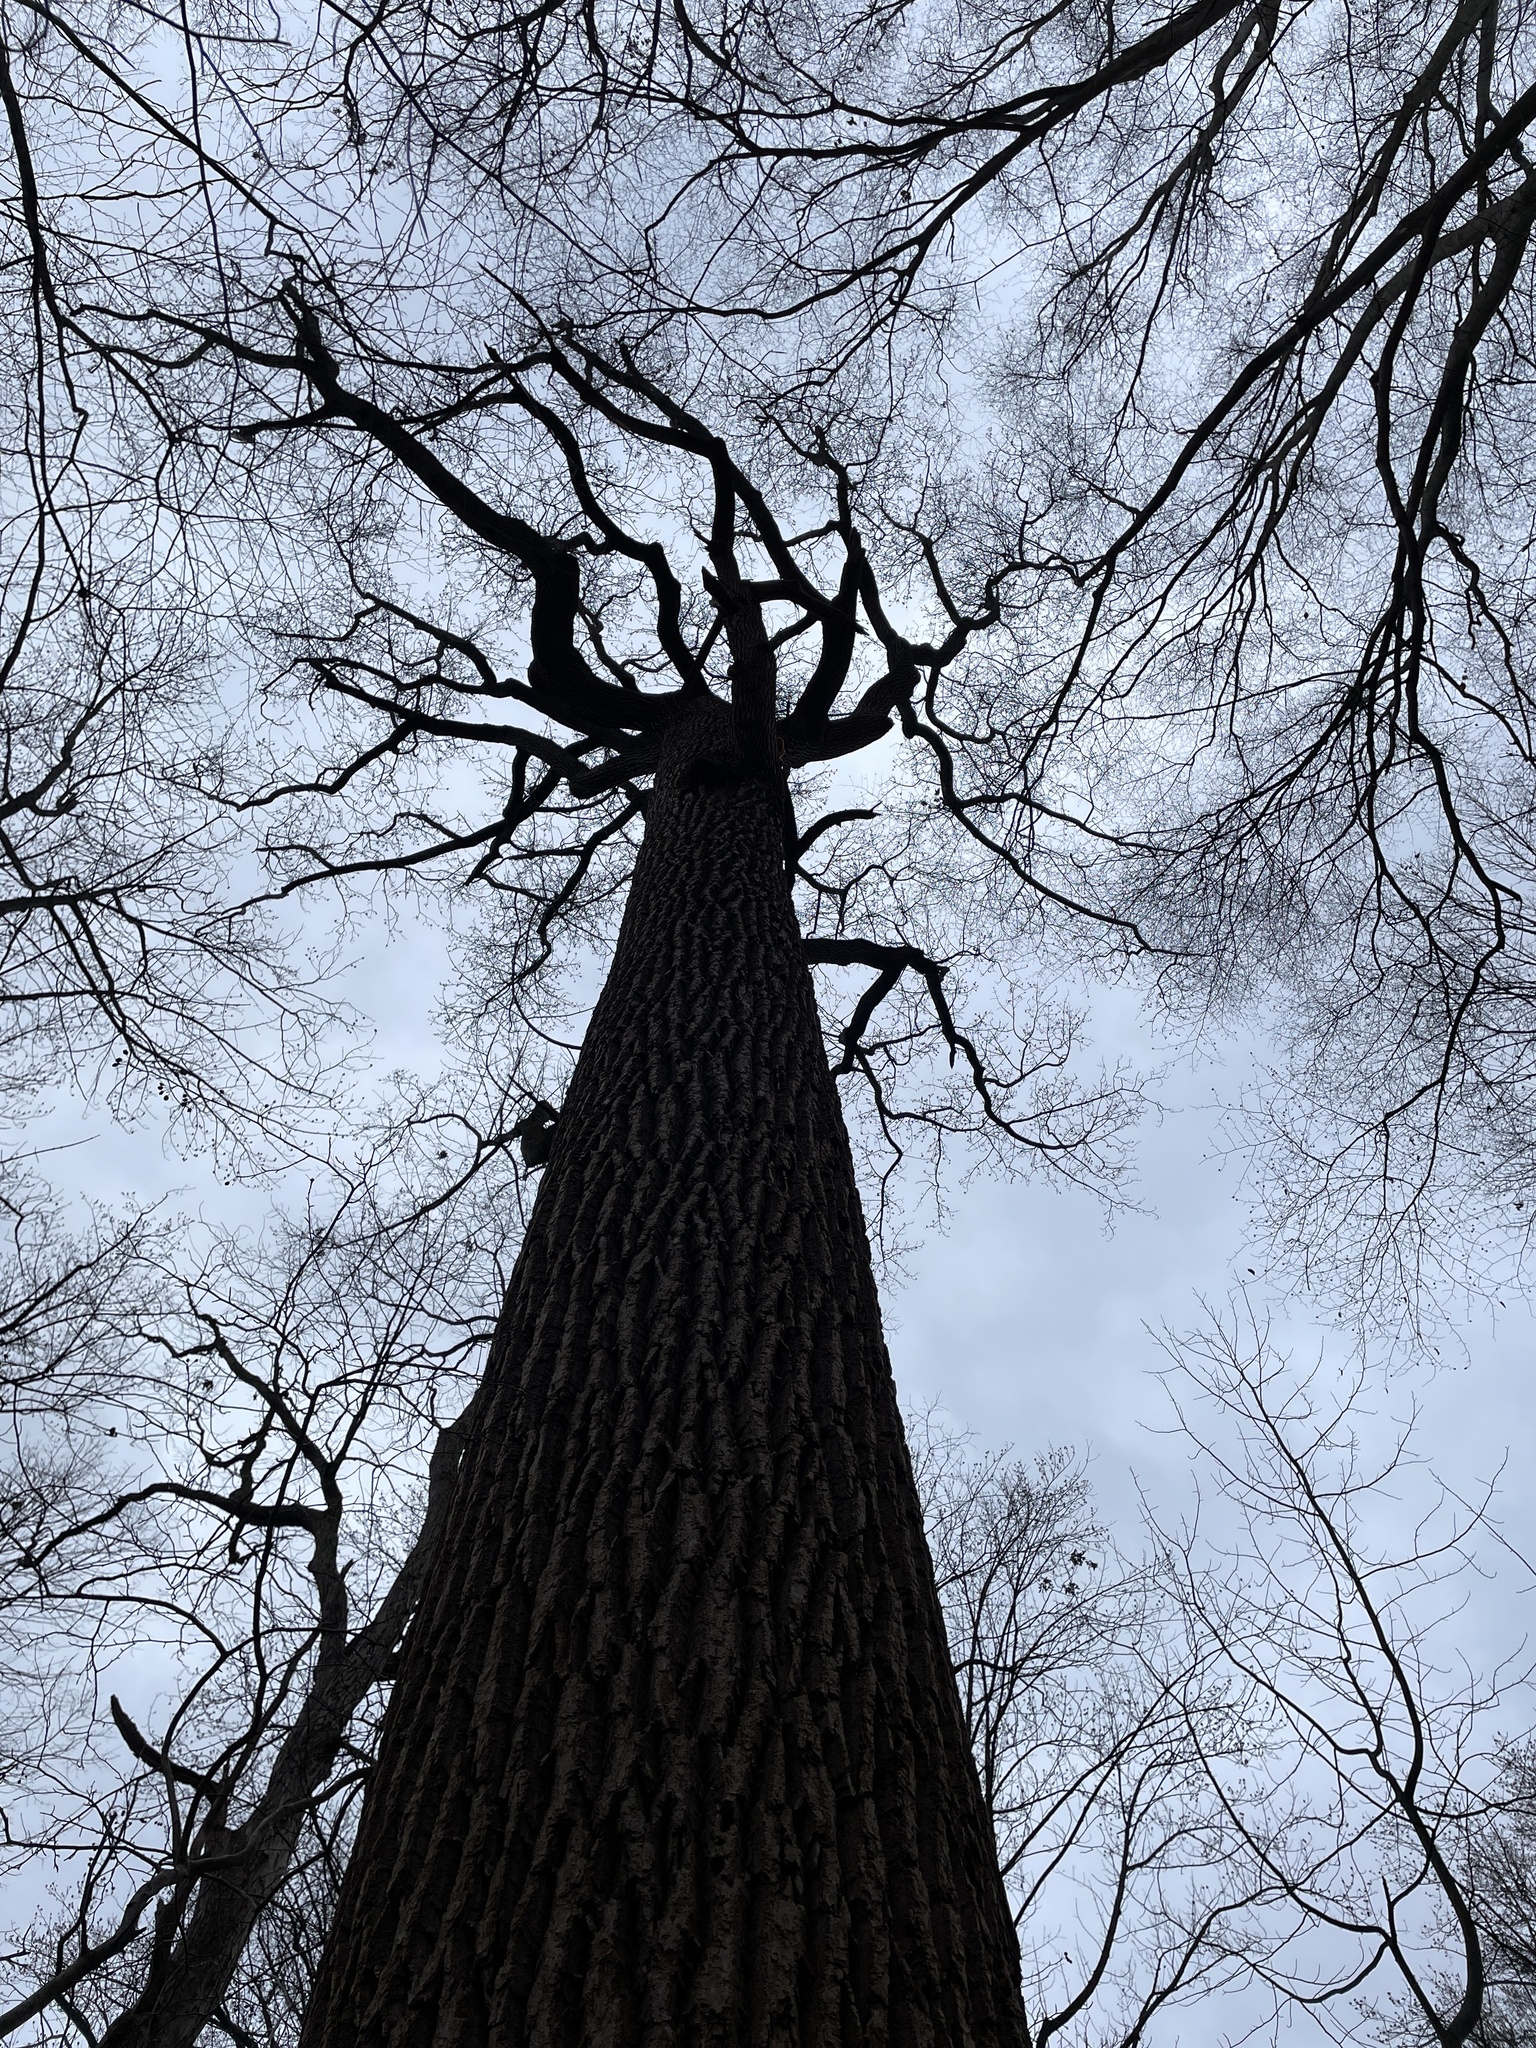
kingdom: Plantae
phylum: Tracheophyta
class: Magnoliopsida
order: Magnoliales
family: Magnoliaceae
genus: Liriodendron
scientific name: Liriodendron tulipifera
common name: Tulip tree
